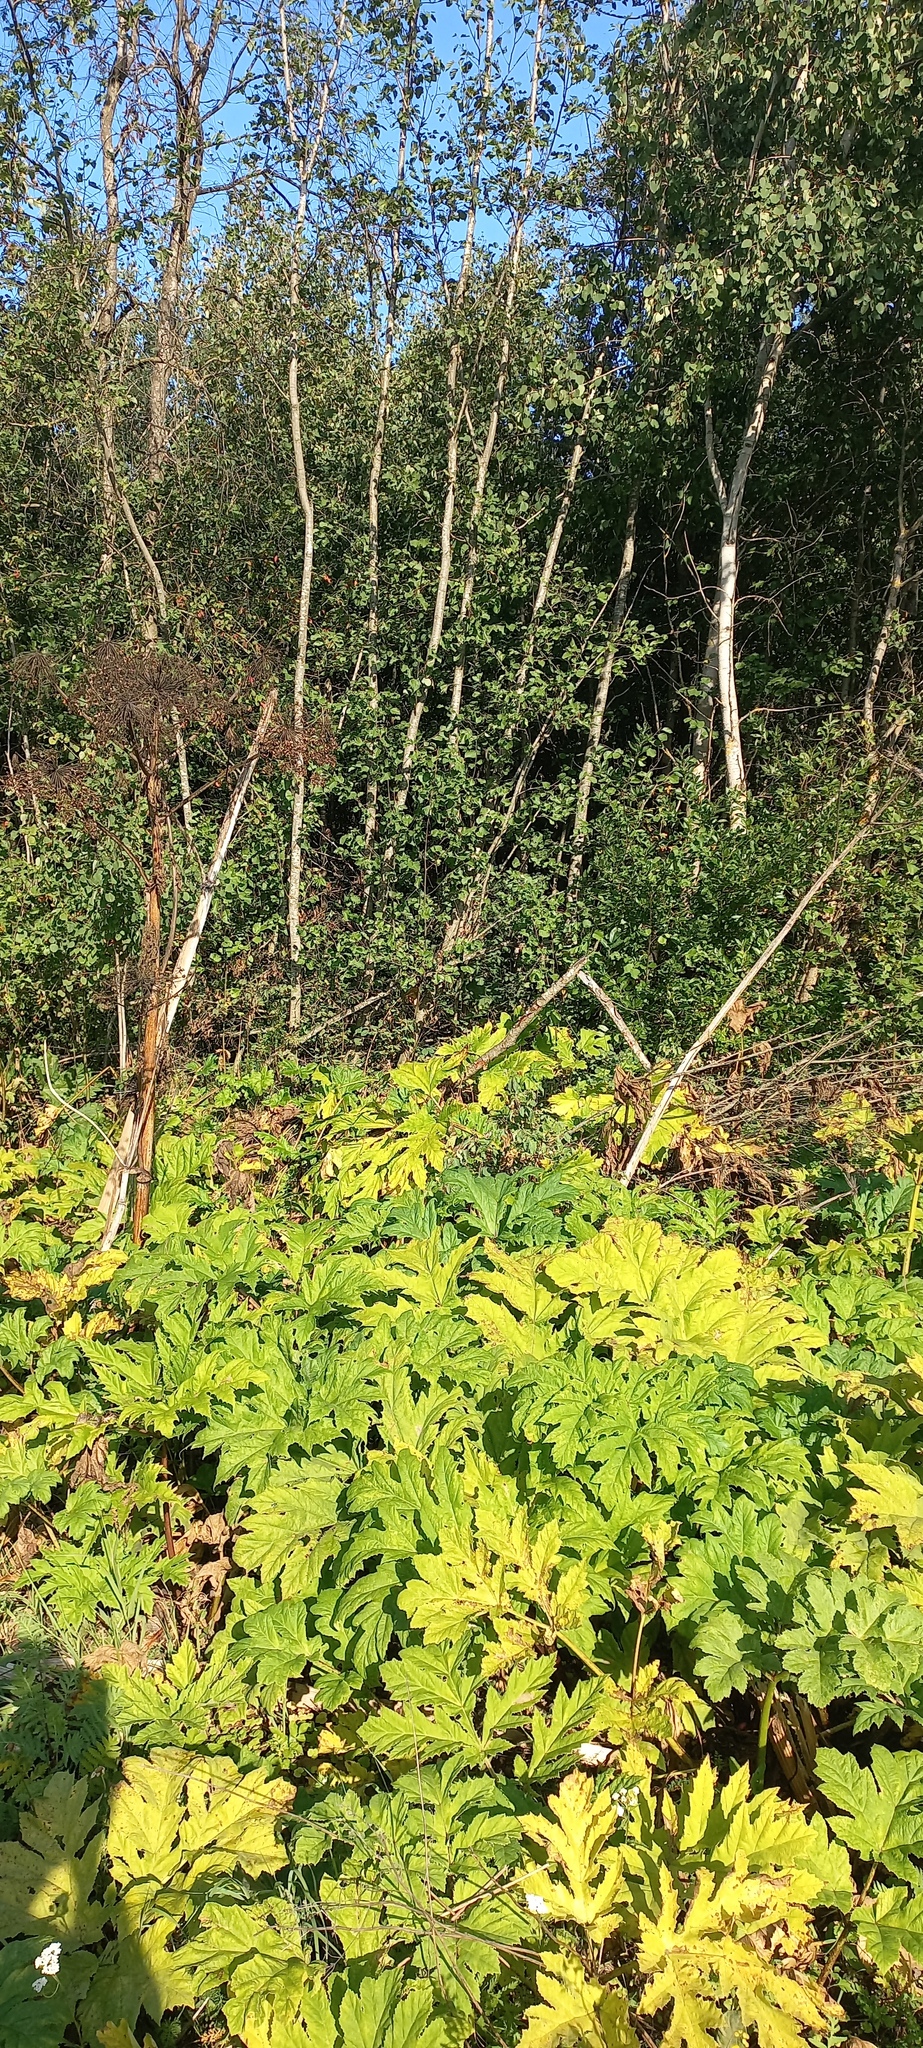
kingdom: Plantae
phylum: Tracheophyta
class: Magnoliopsida
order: Apiales
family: Apiaceae
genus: Heracleum
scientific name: Heracleum sosnowskyi
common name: Sosnowsky's hogweed
